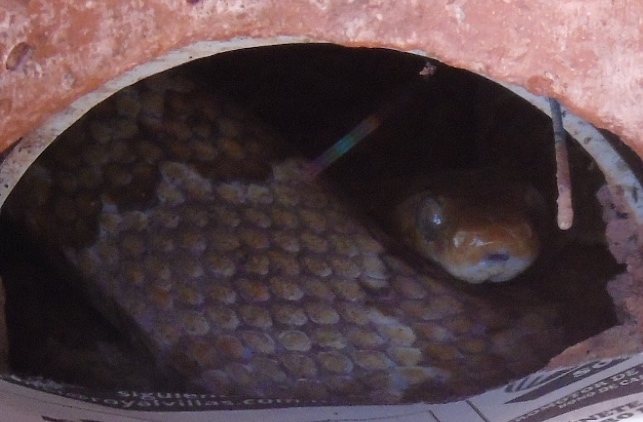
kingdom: Animalia
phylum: Chordata
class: Squamata
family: Colubridae
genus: Trimorphodon
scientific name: Trimorphodon paucimaculatus
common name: Sinaloan lyresnake
